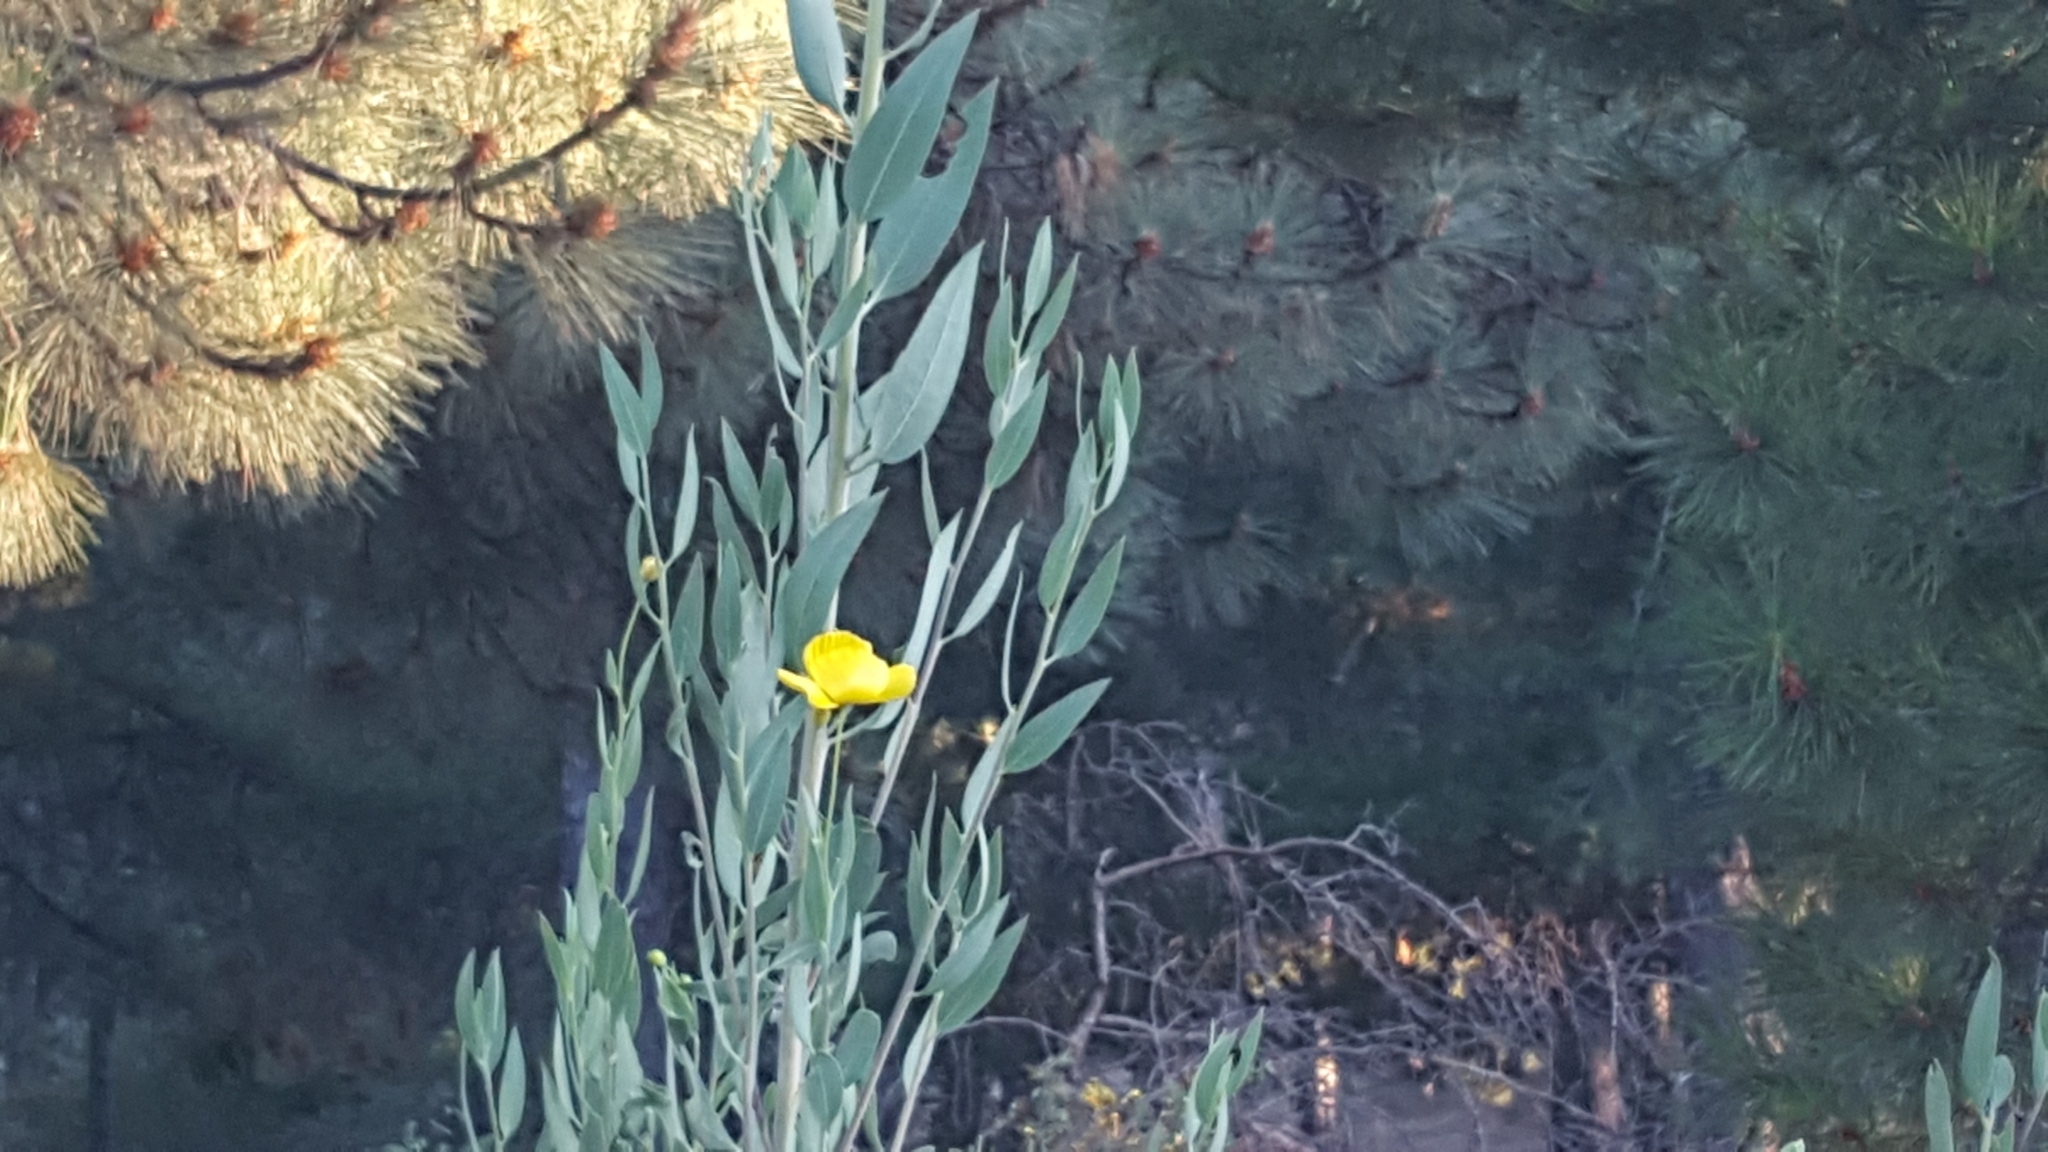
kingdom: Plantae
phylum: Tracheophyta
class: Magnoliopsida
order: Ranunculales
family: Papaveraceae
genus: Dendromecon
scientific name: Dendromecon rigida
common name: Tree poppy
